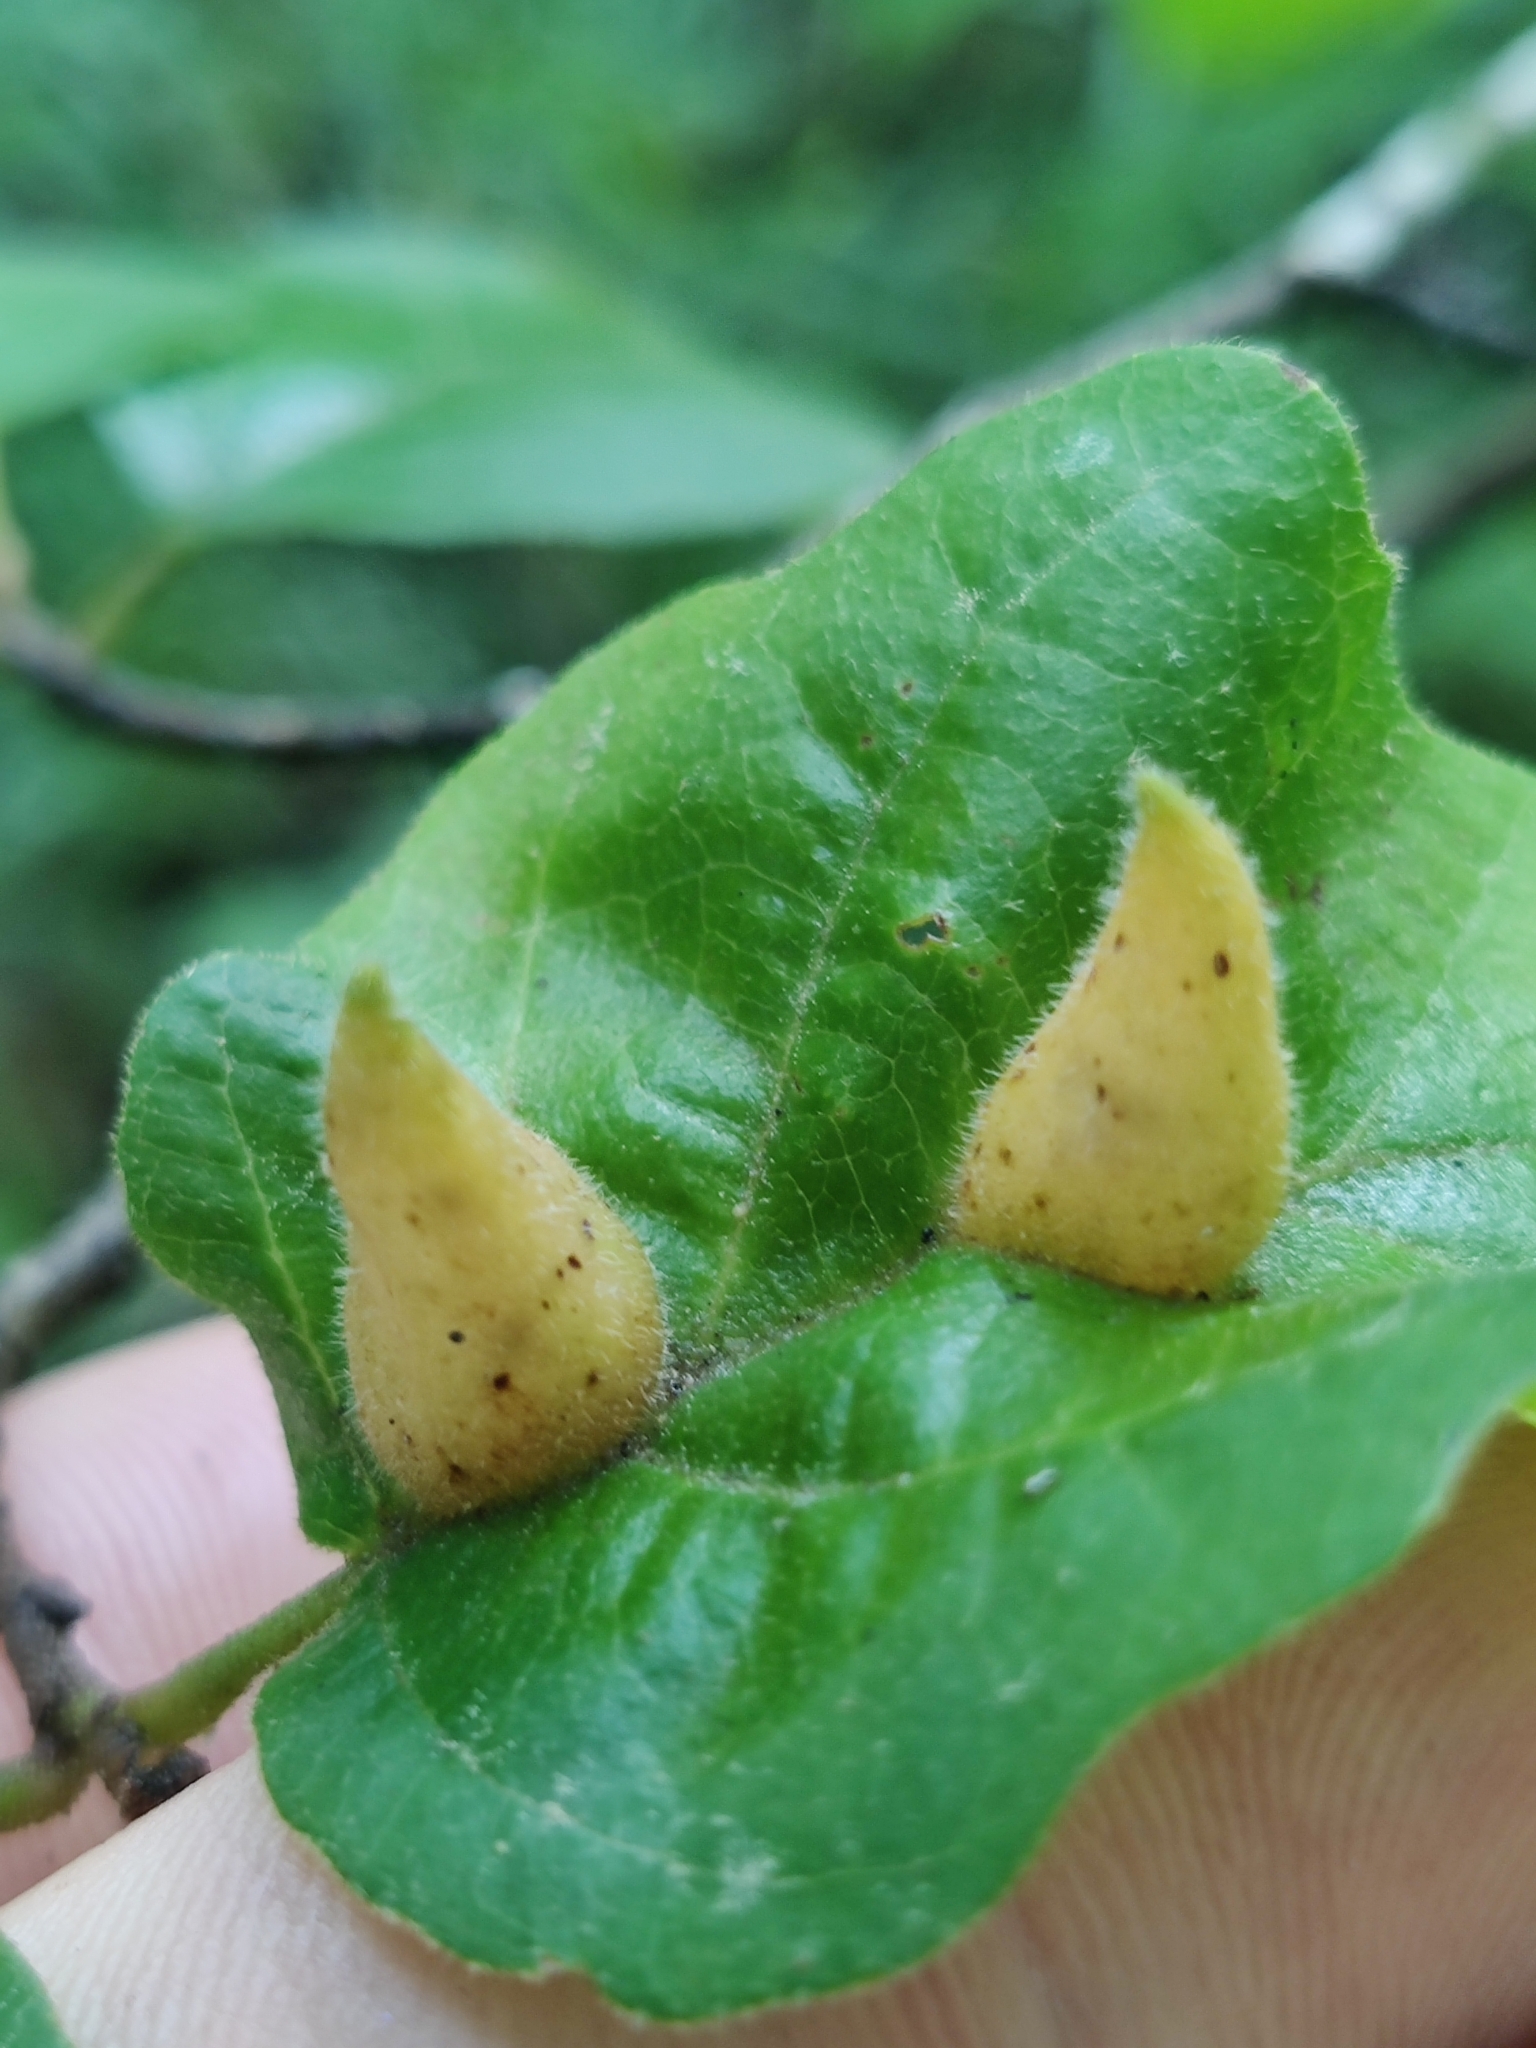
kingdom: Animalia
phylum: Arthropoda
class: Insecta
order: Hemiptera
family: Aphididae
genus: Hormaphis
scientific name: Hormaphis hamamelidis
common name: Witch-hazel cone gall aphid
